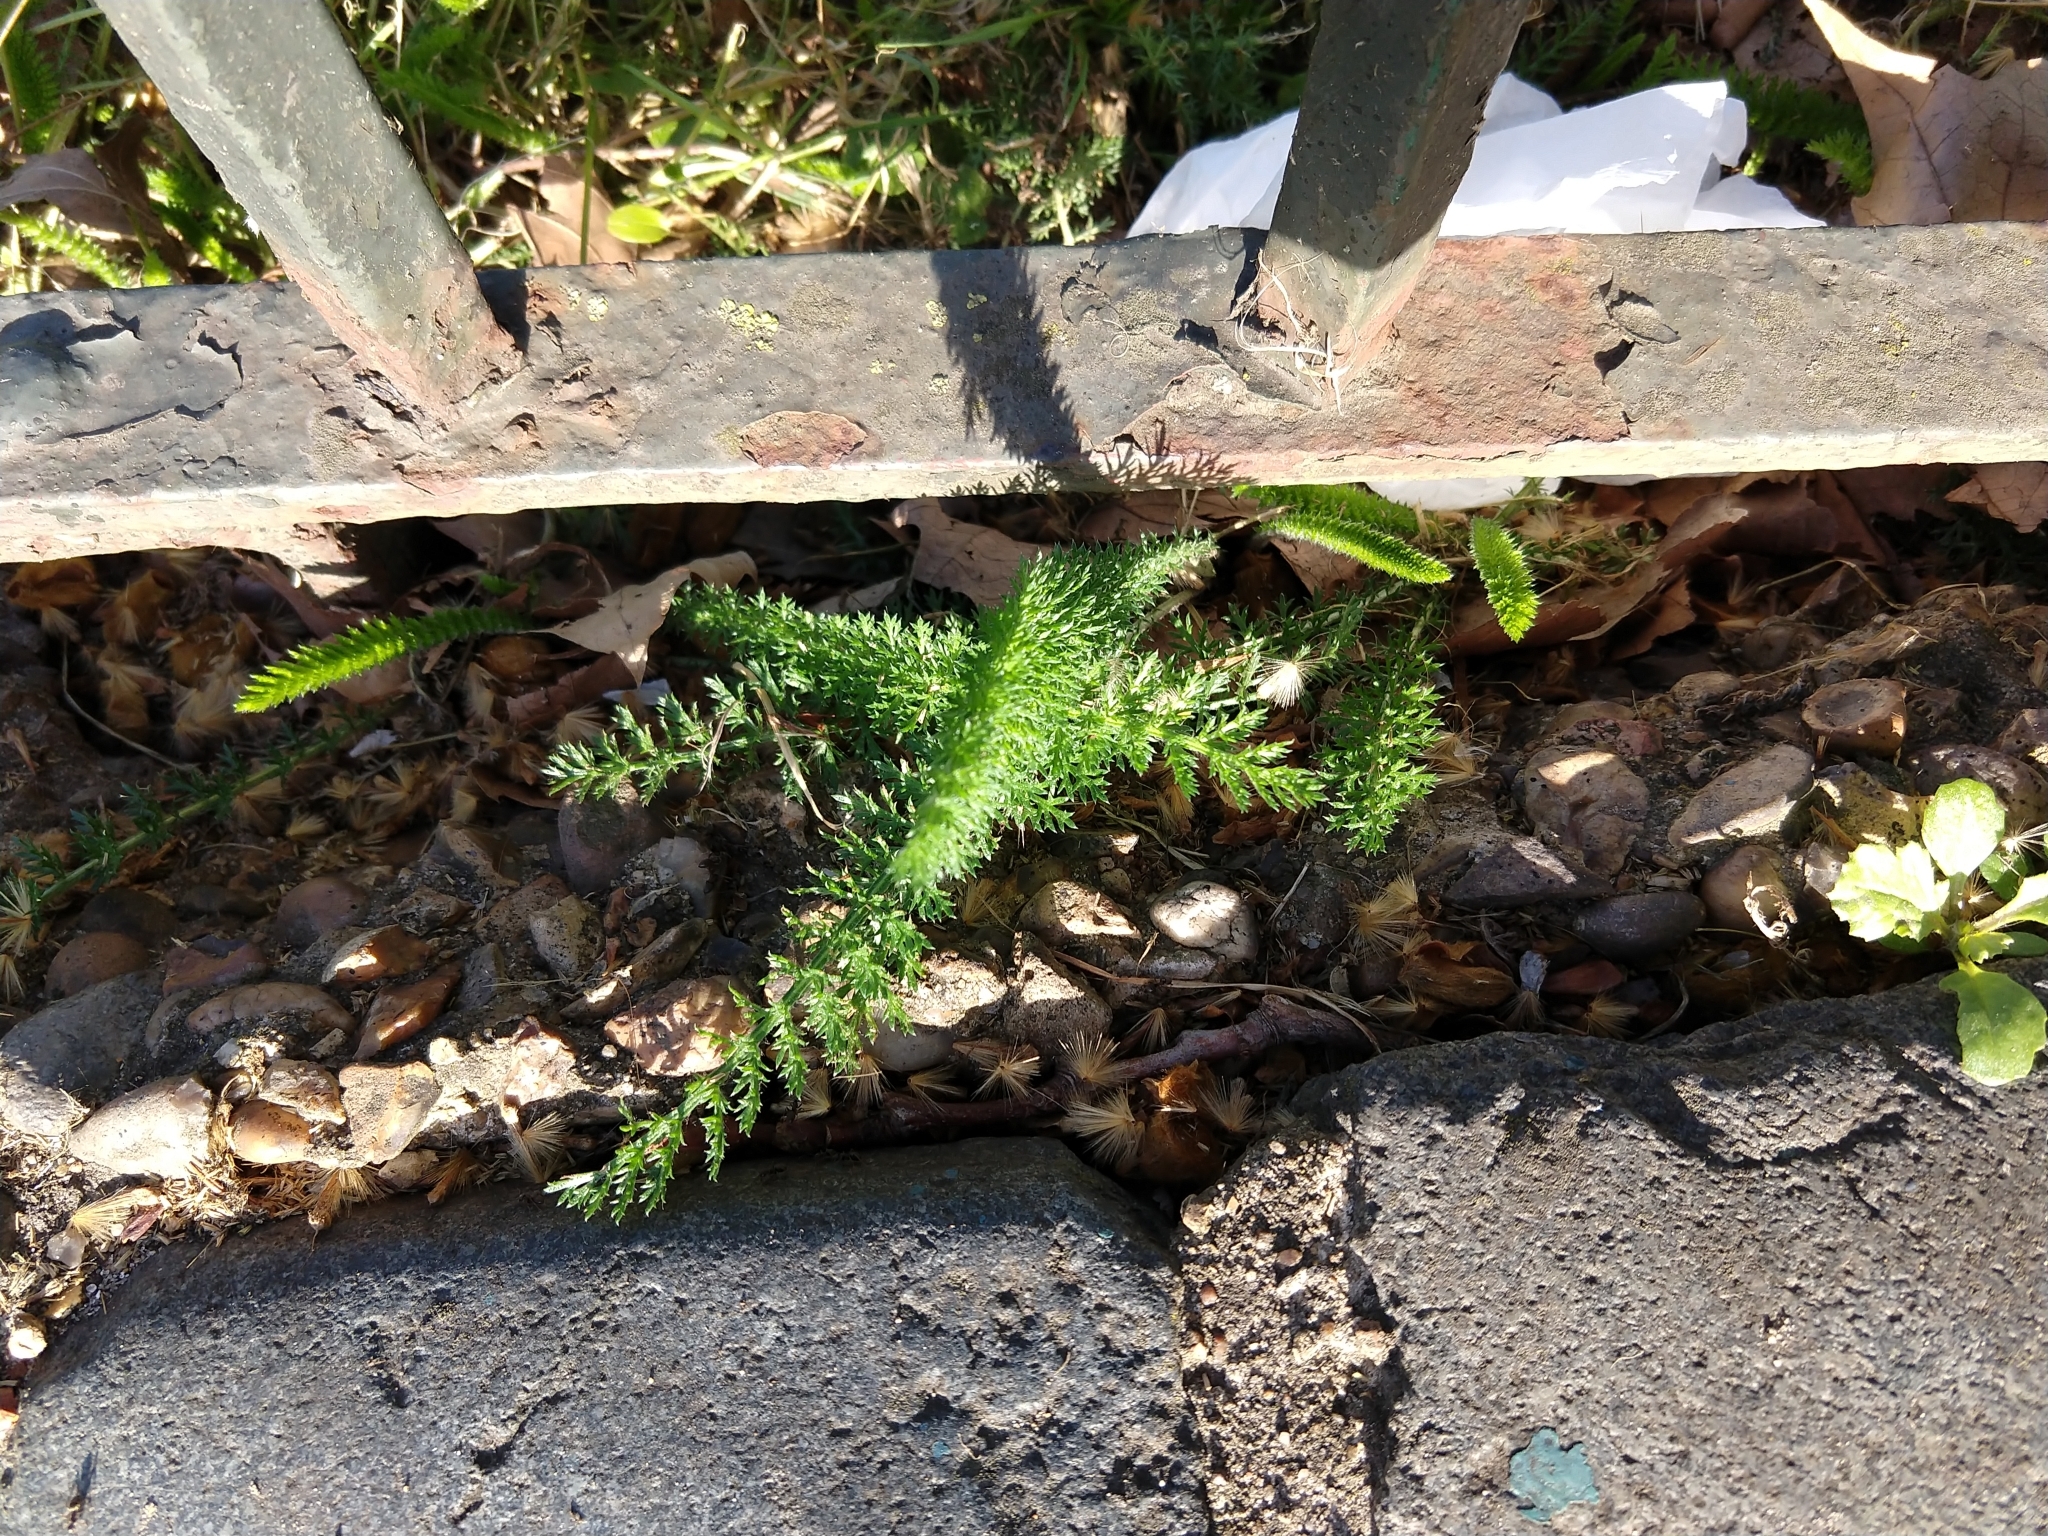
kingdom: Plantae
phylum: Tracheophyta
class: Magnoliopsida
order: Asterales
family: Asteraceae
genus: Achillea
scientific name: Achillea millefolium
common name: Yarrow
